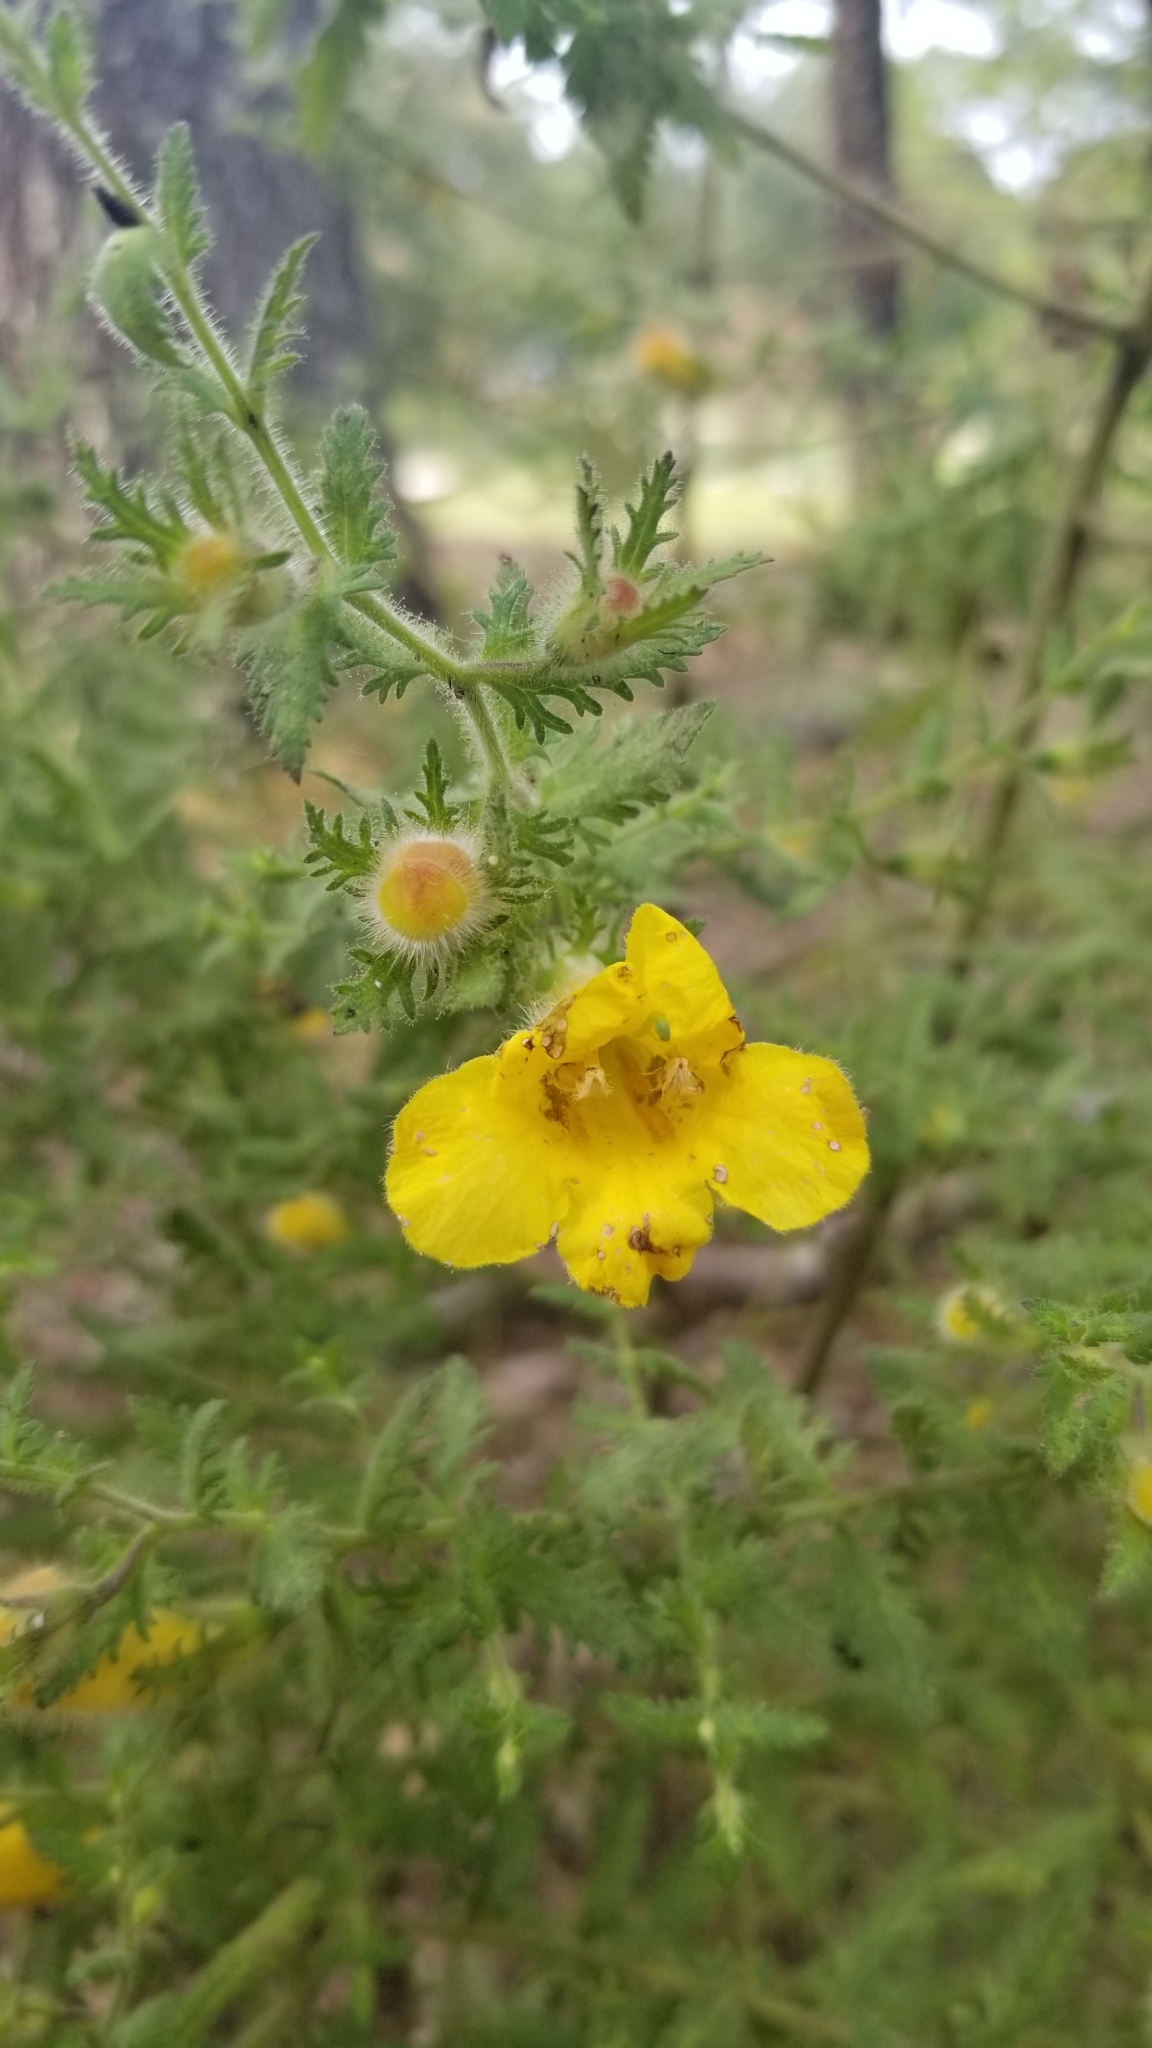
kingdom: Plantae
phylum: Tracheophyta
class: Magnoliopsida
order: Lamiales
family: Orobanchaceae
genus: Aureolaria
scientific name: Aureolaria pectinata
